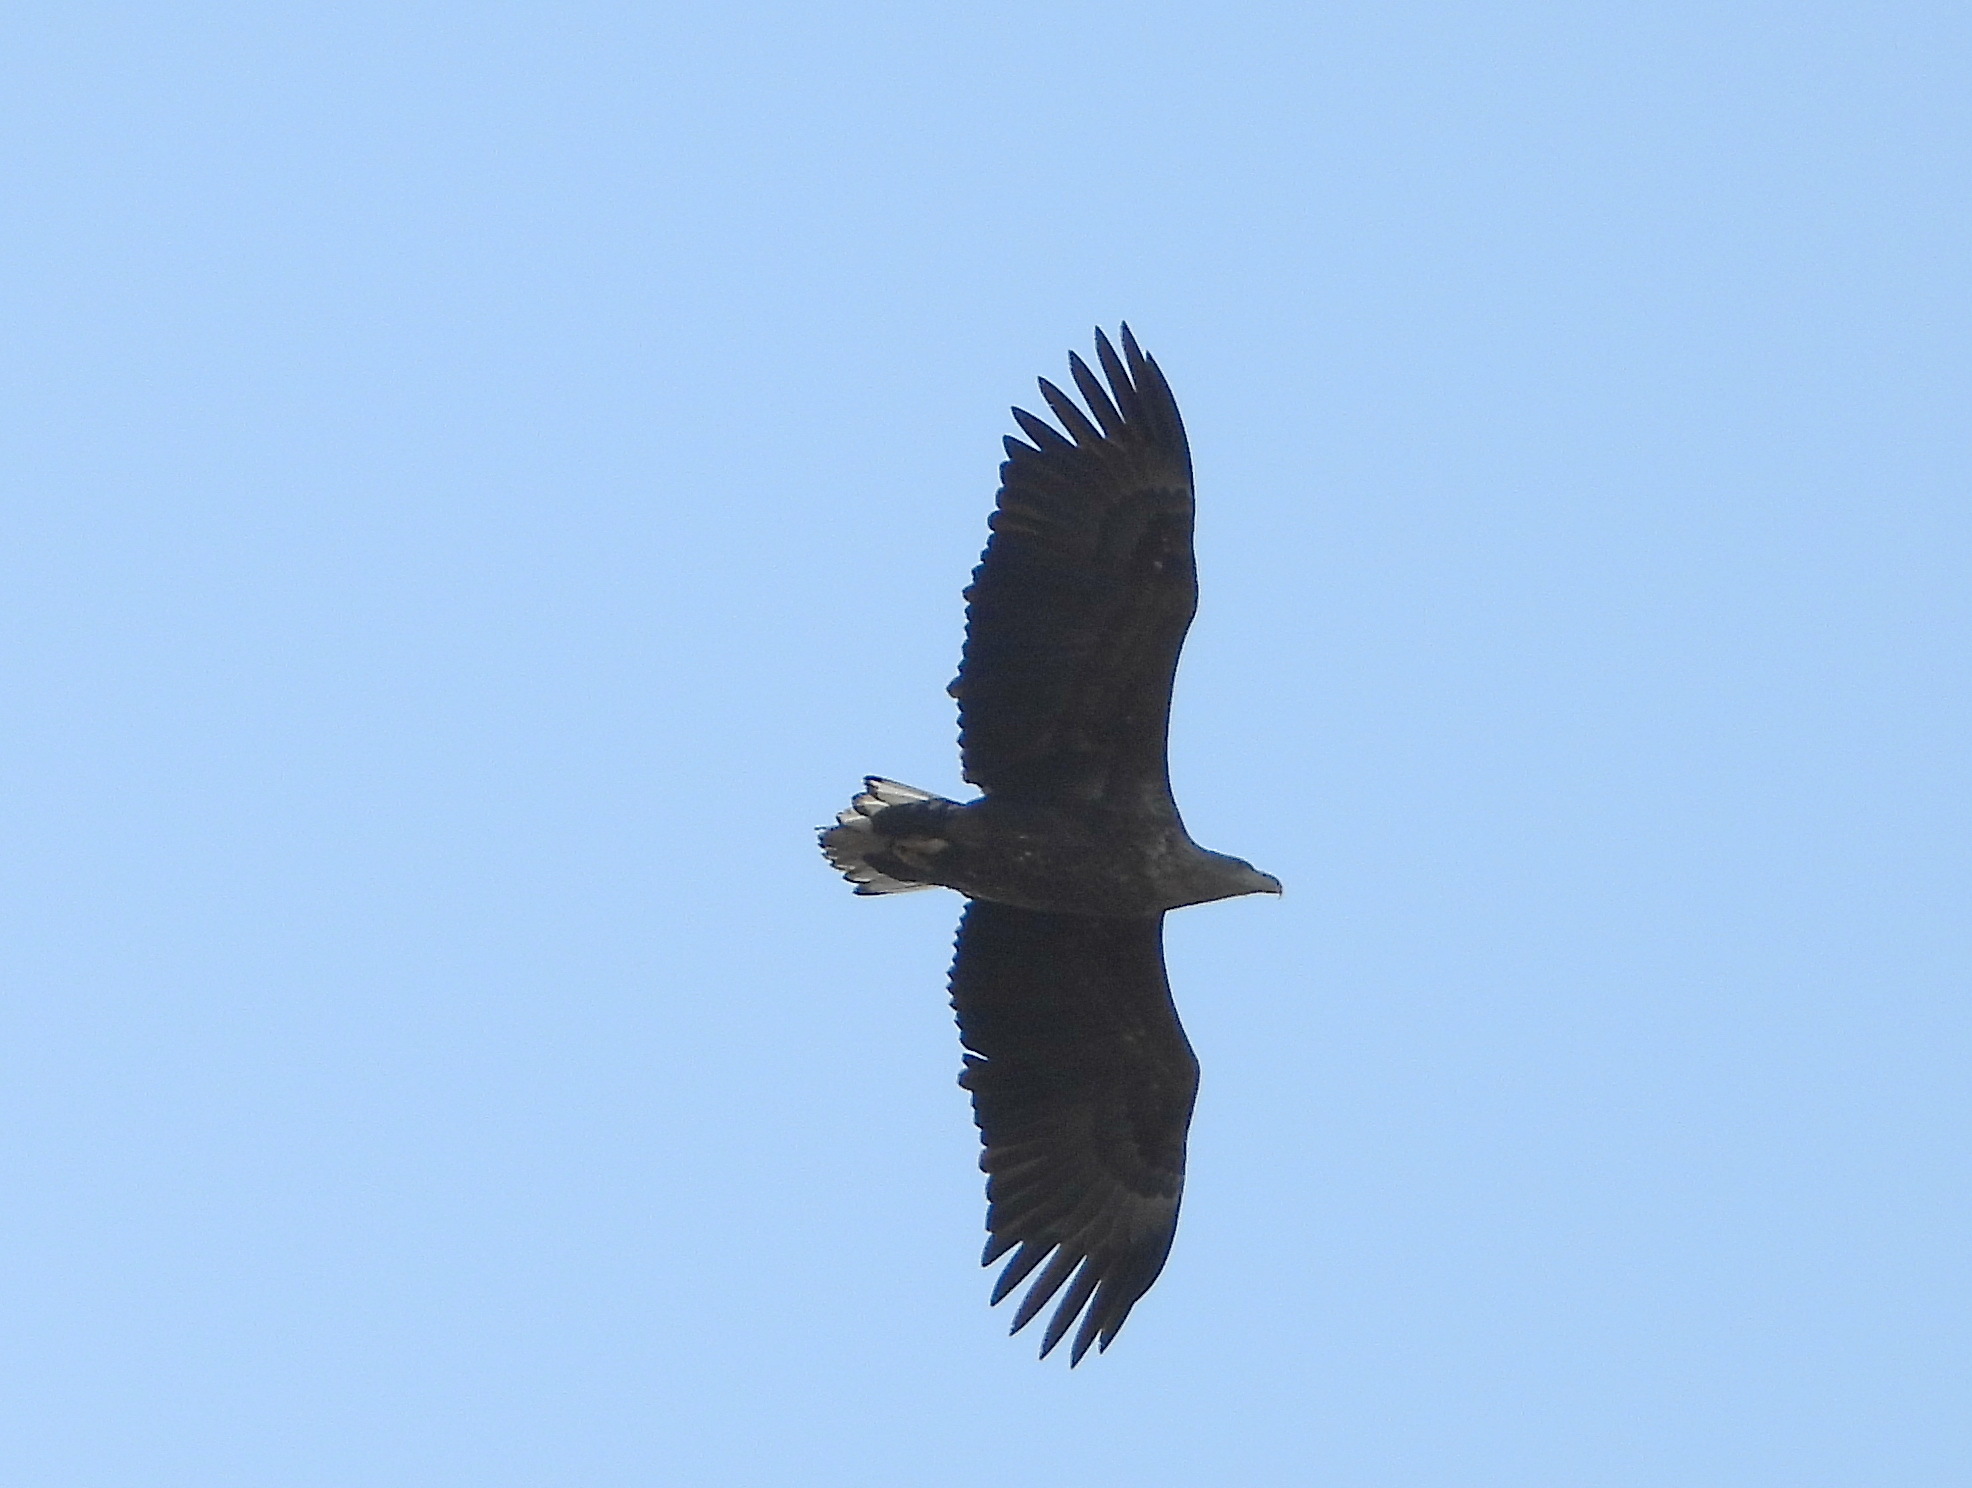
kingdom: Animalia
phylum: Chordata
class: Aves
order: Accipitriformes
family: Accipitridae
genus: Haliaeetus
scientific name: Haliaeetus albicilla
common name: White-tailed eagle
